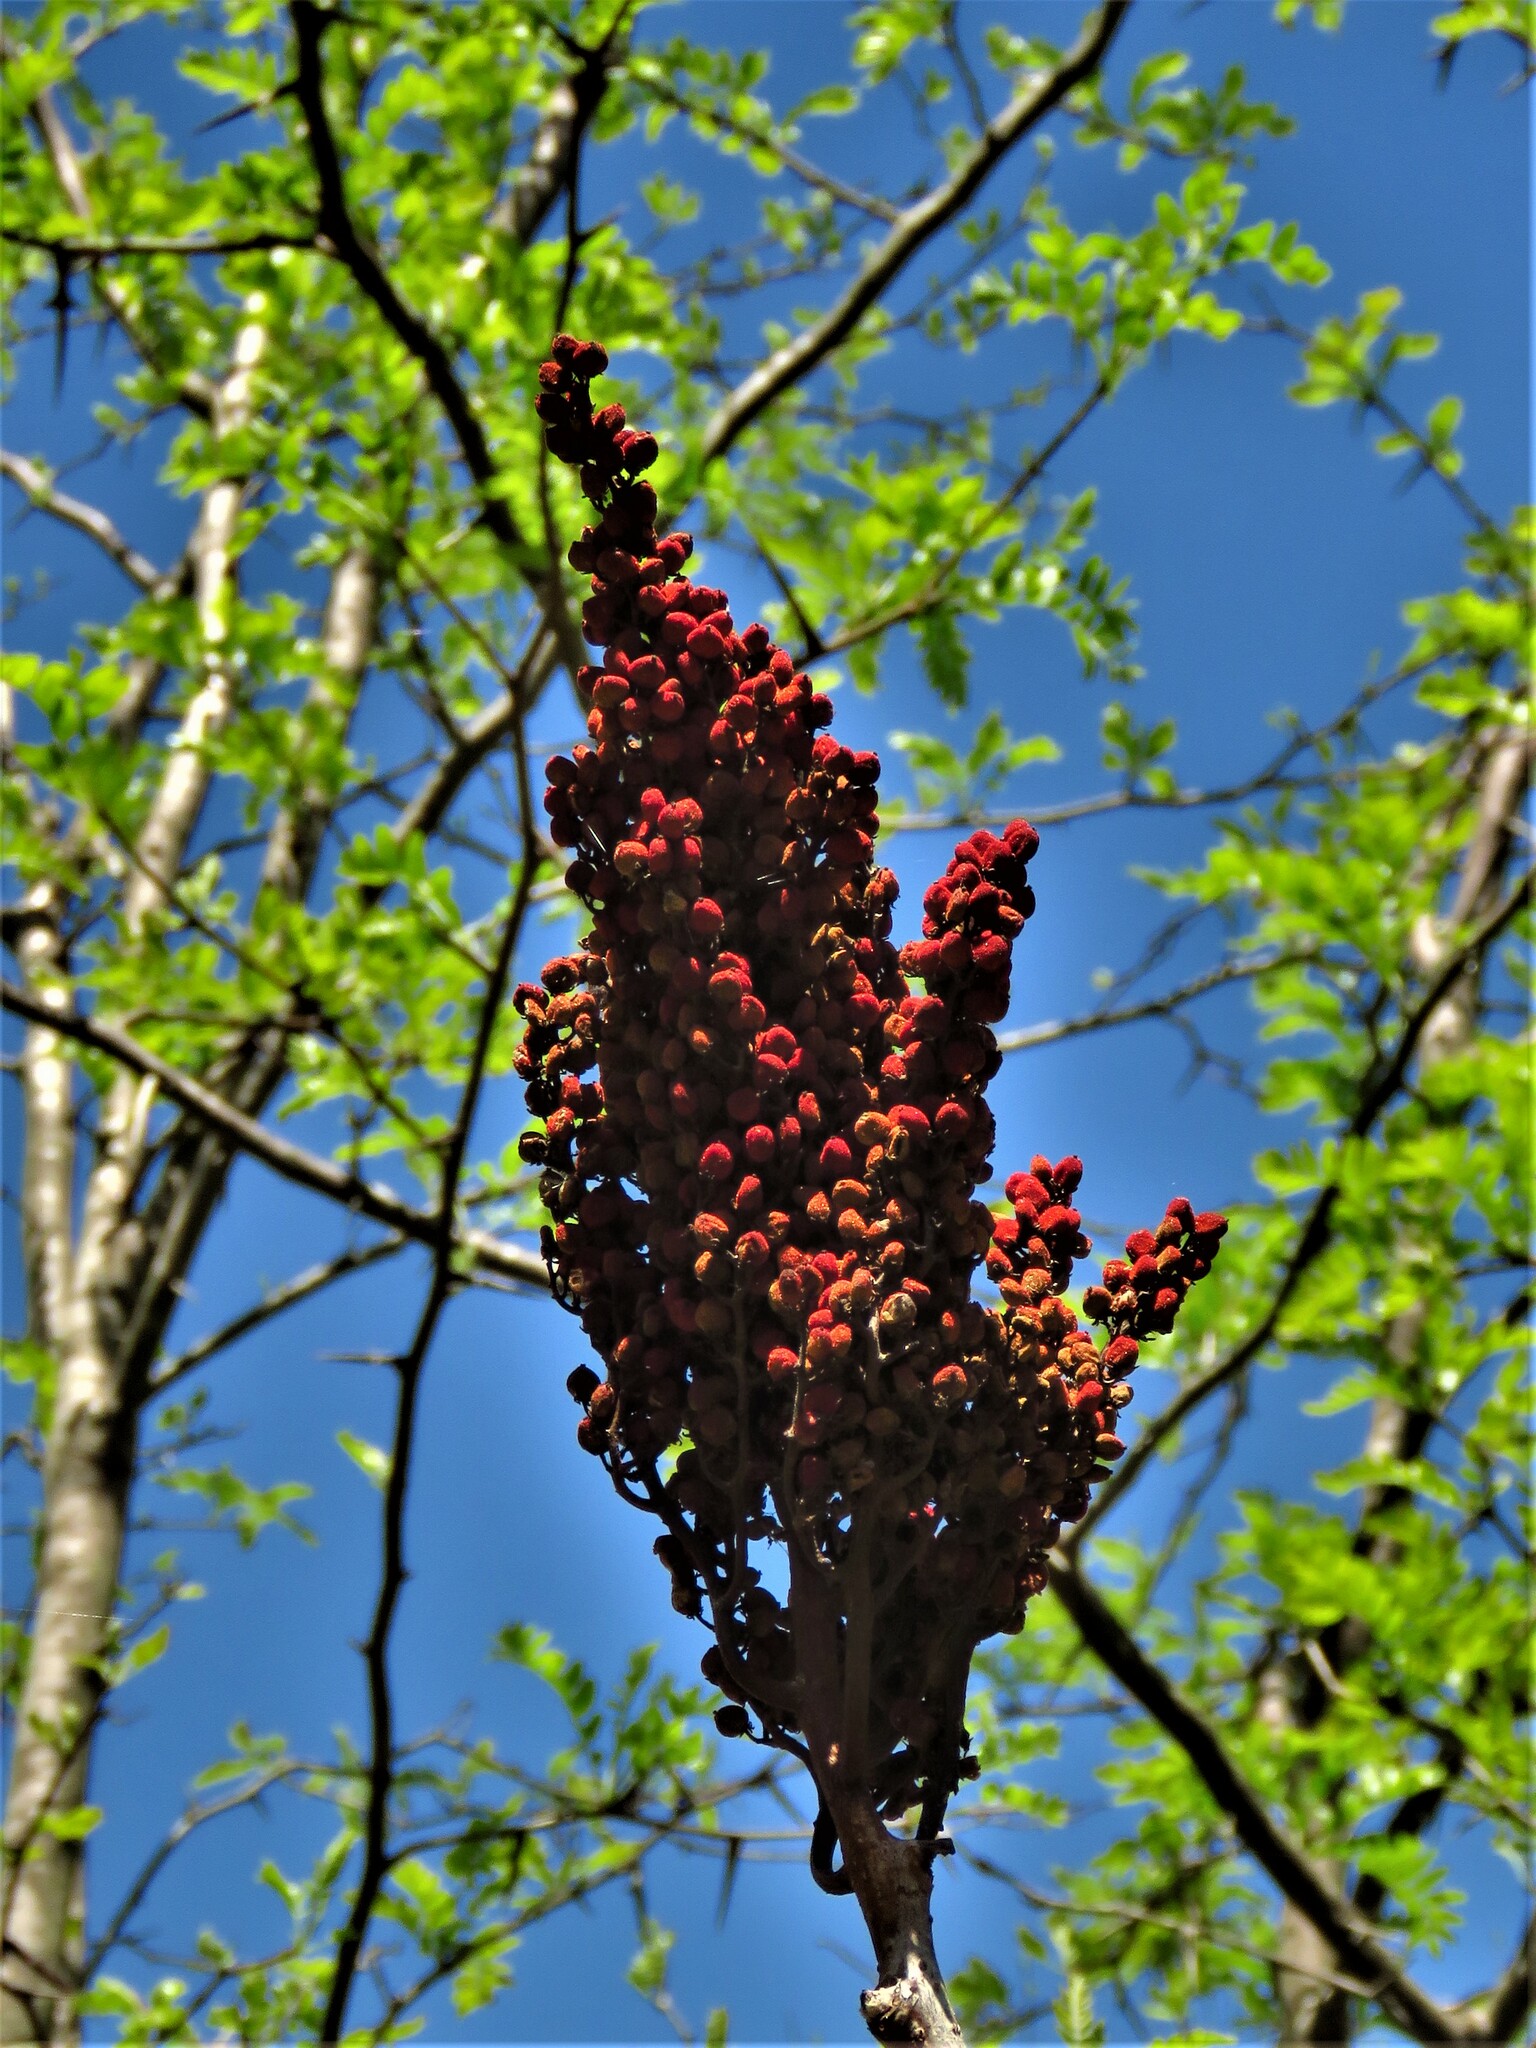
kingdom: Plantae
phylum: Tracheophyta
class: Magnoliopsida
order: Sapindales
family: Anacardiaceae
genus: Rhus
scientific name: Rhus glabra
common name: Scarlet sumac
